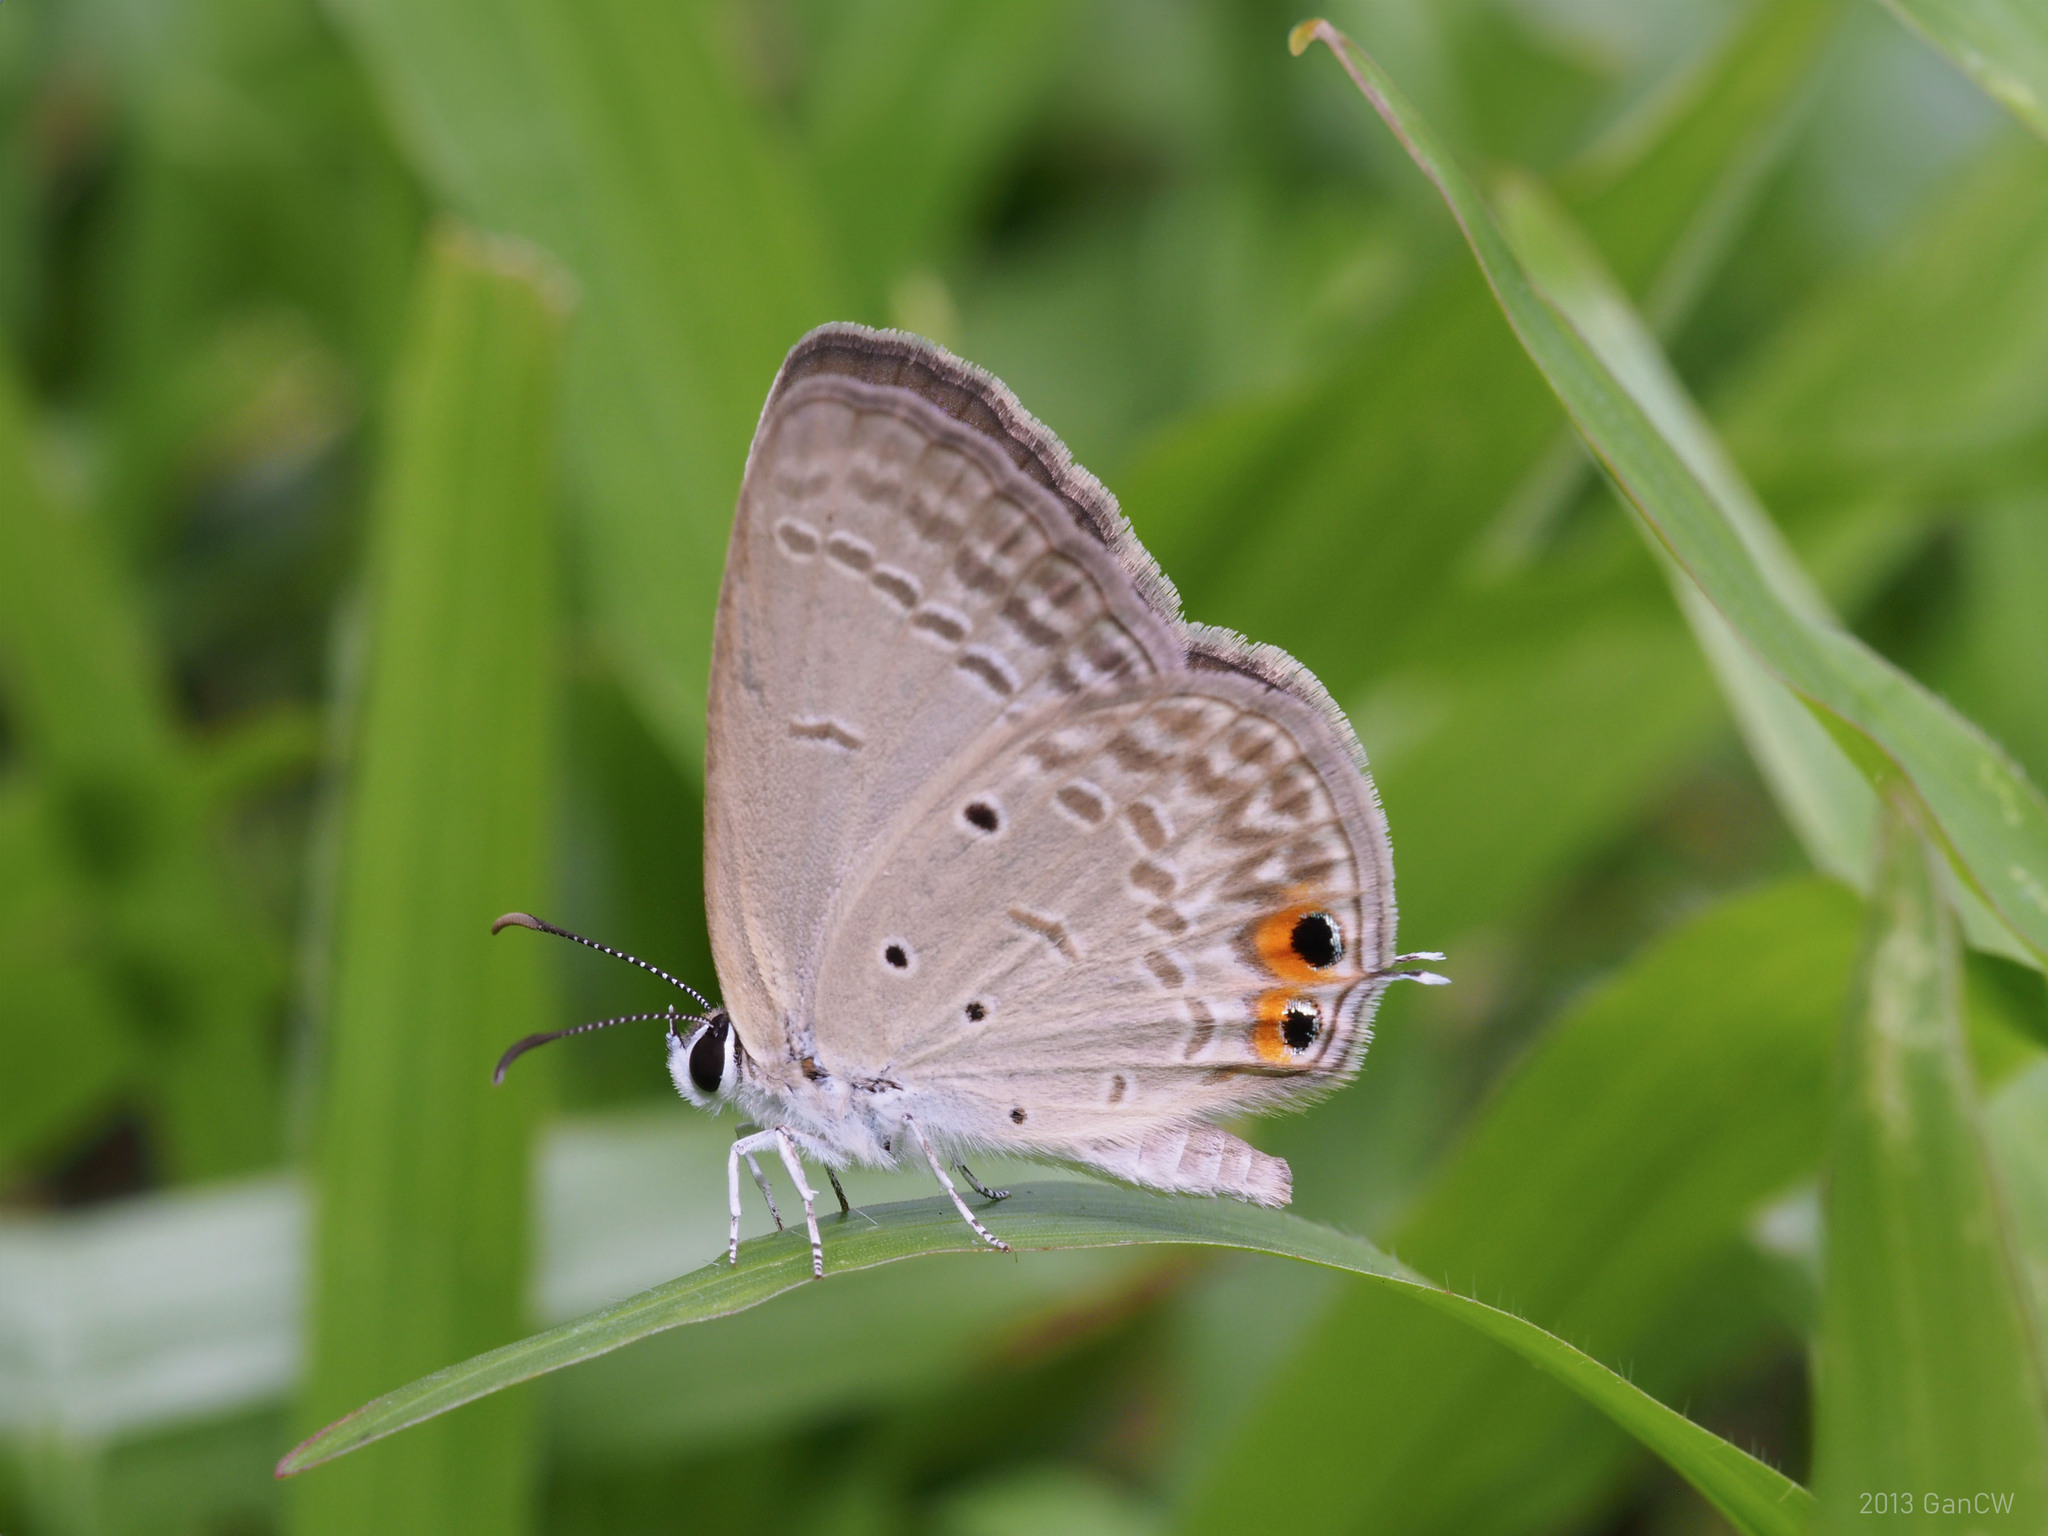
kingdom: Animalia
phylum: Arthropoda
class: Insecta
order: Lepidoptera
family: Lycaenidae
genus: Euchrysops
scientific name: Euchrysops cnejus
